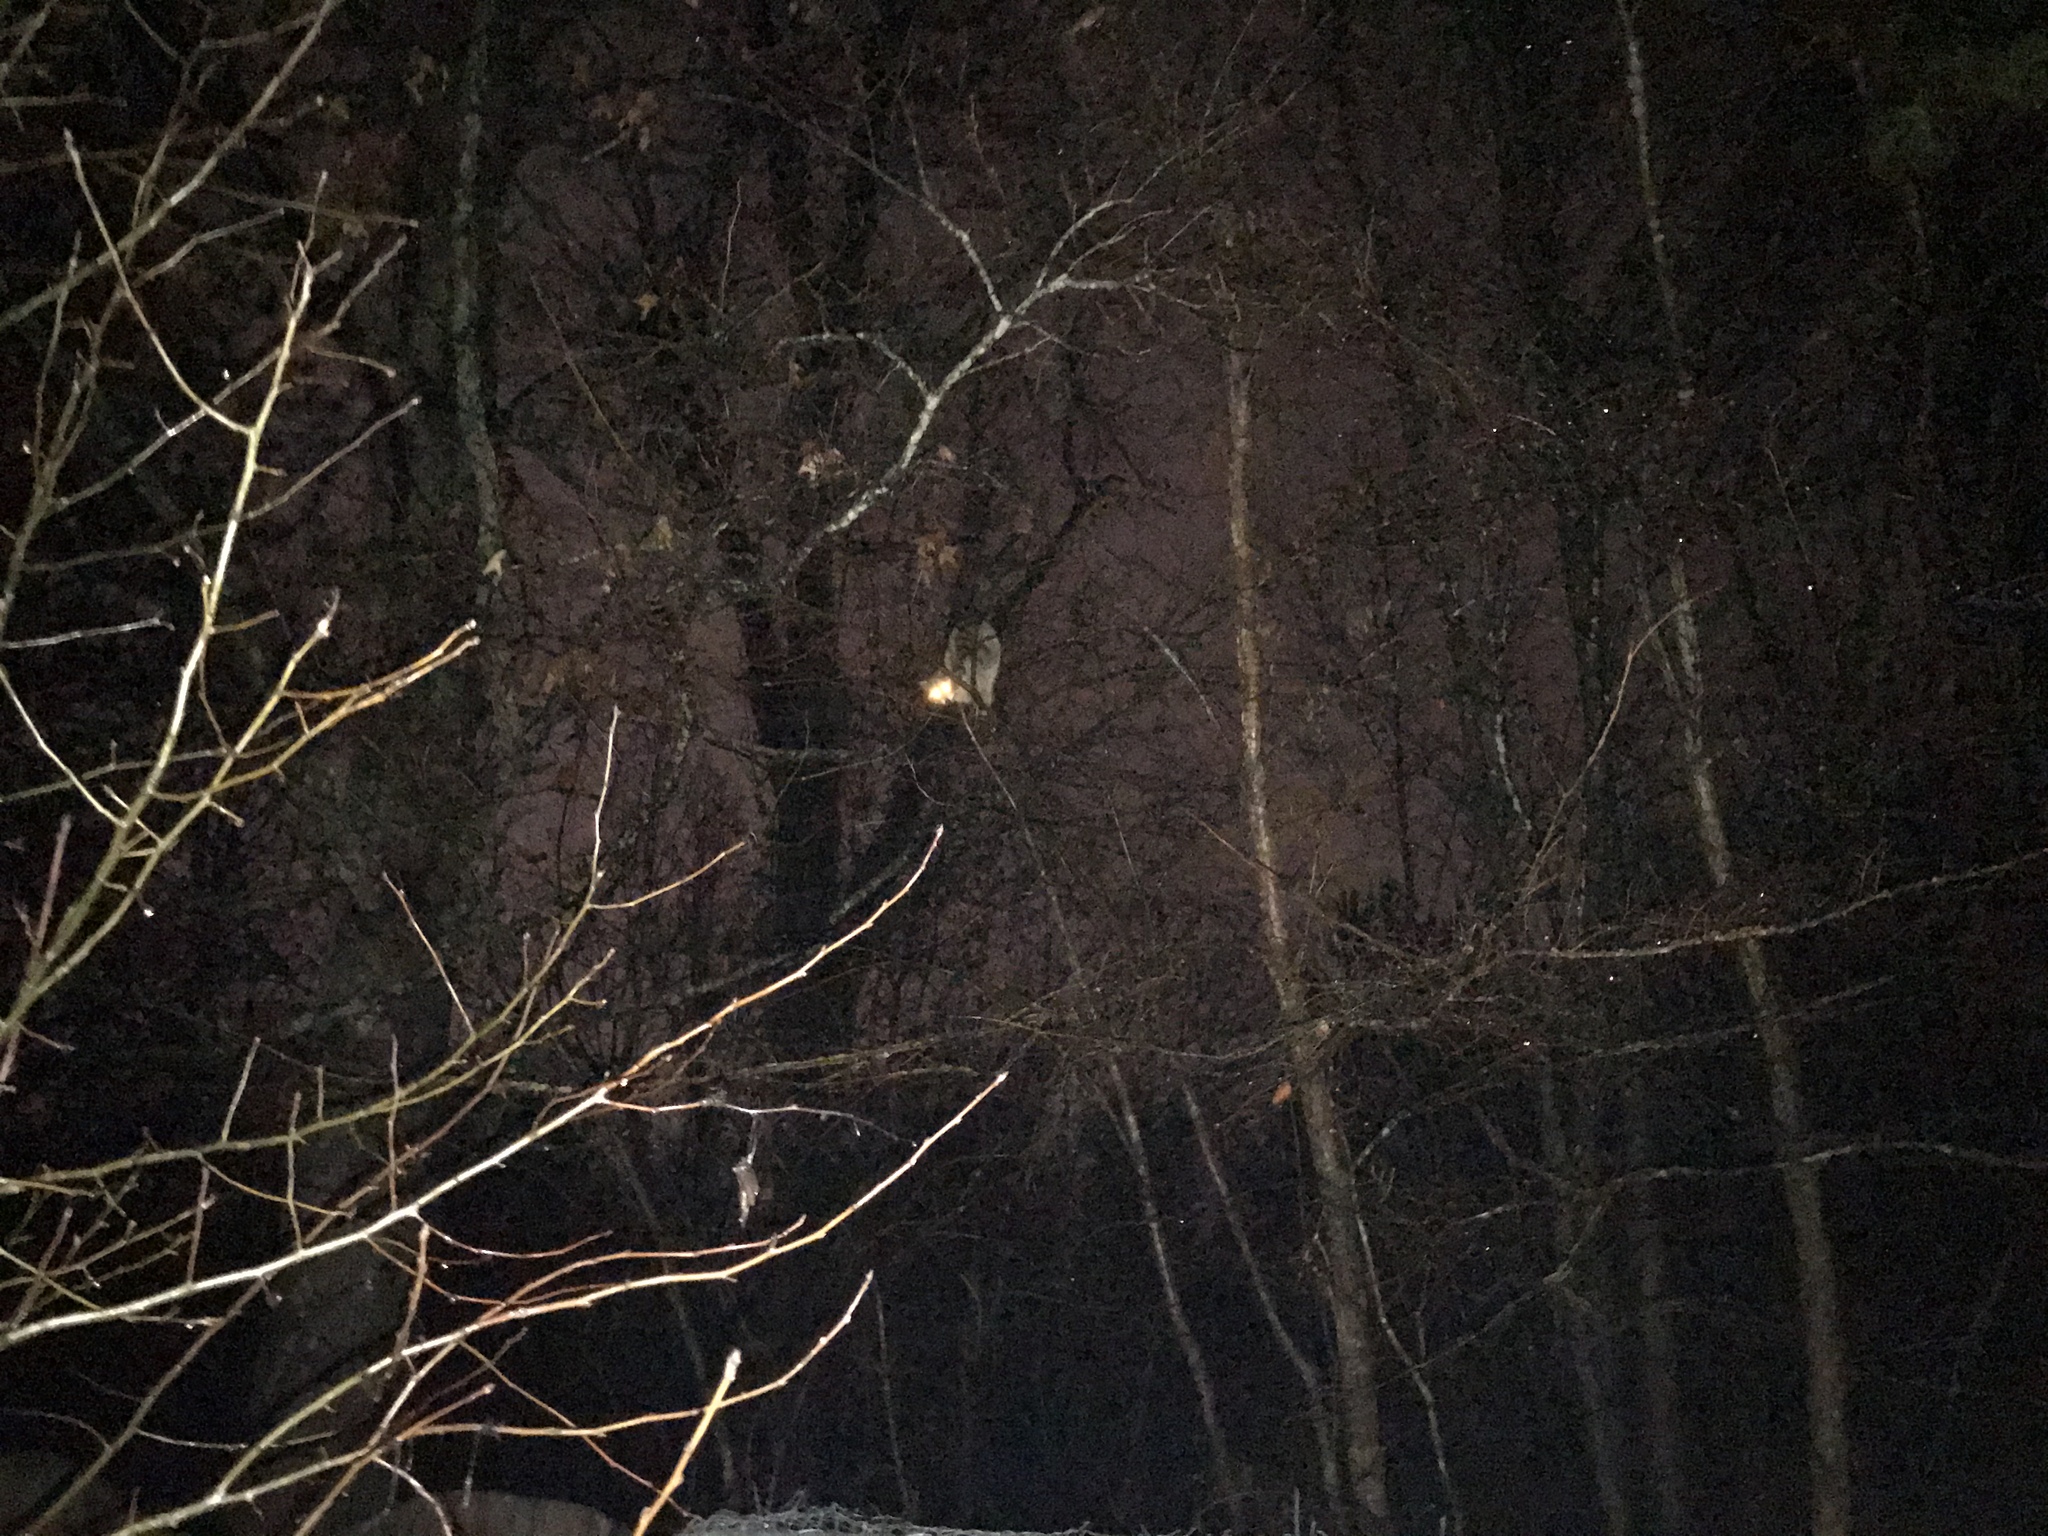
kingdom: Animalia
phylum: Chordata
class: Mammalia
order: Carnivora
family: Procyonidae
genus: Procyon
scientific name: Procyon lotor
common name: Raccoon
